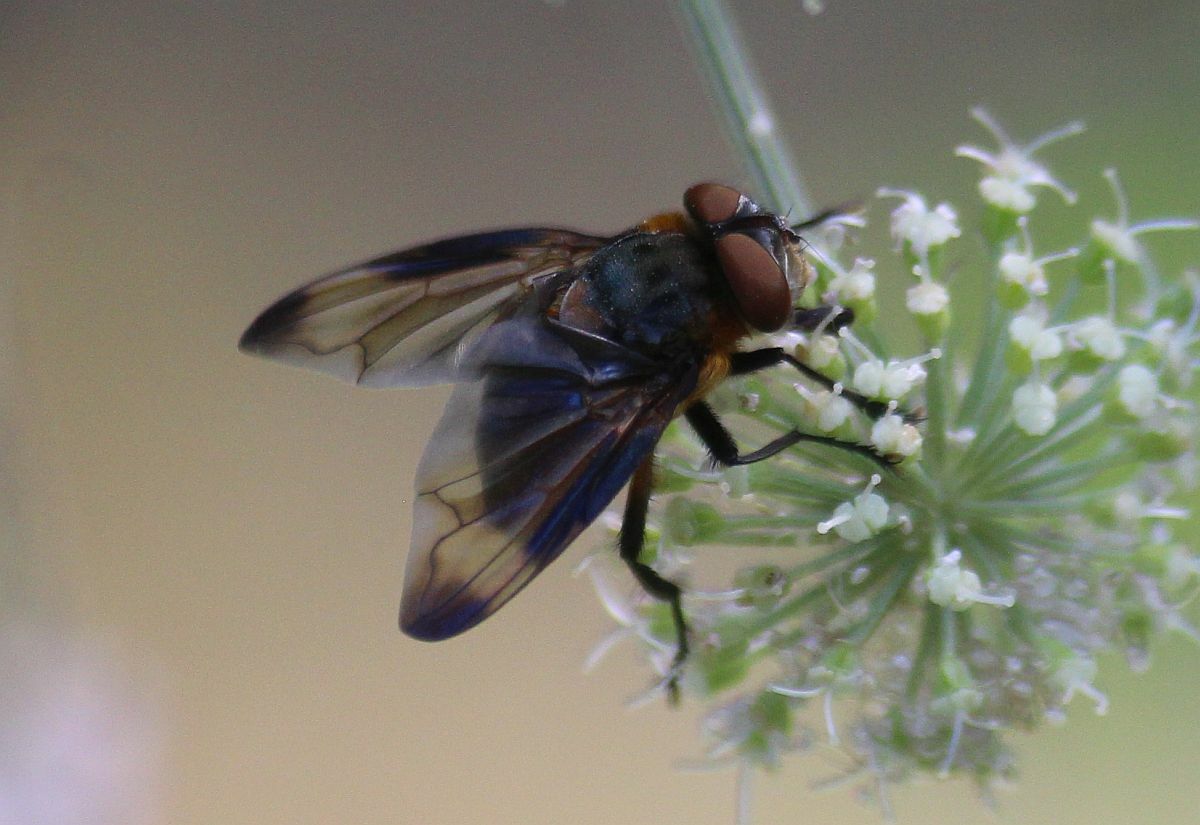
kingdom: Animalia
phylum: Arthropoda
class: Insecta
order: Diptera
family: Tachinidae
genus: Phasia
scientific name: Phasia hemiptera
